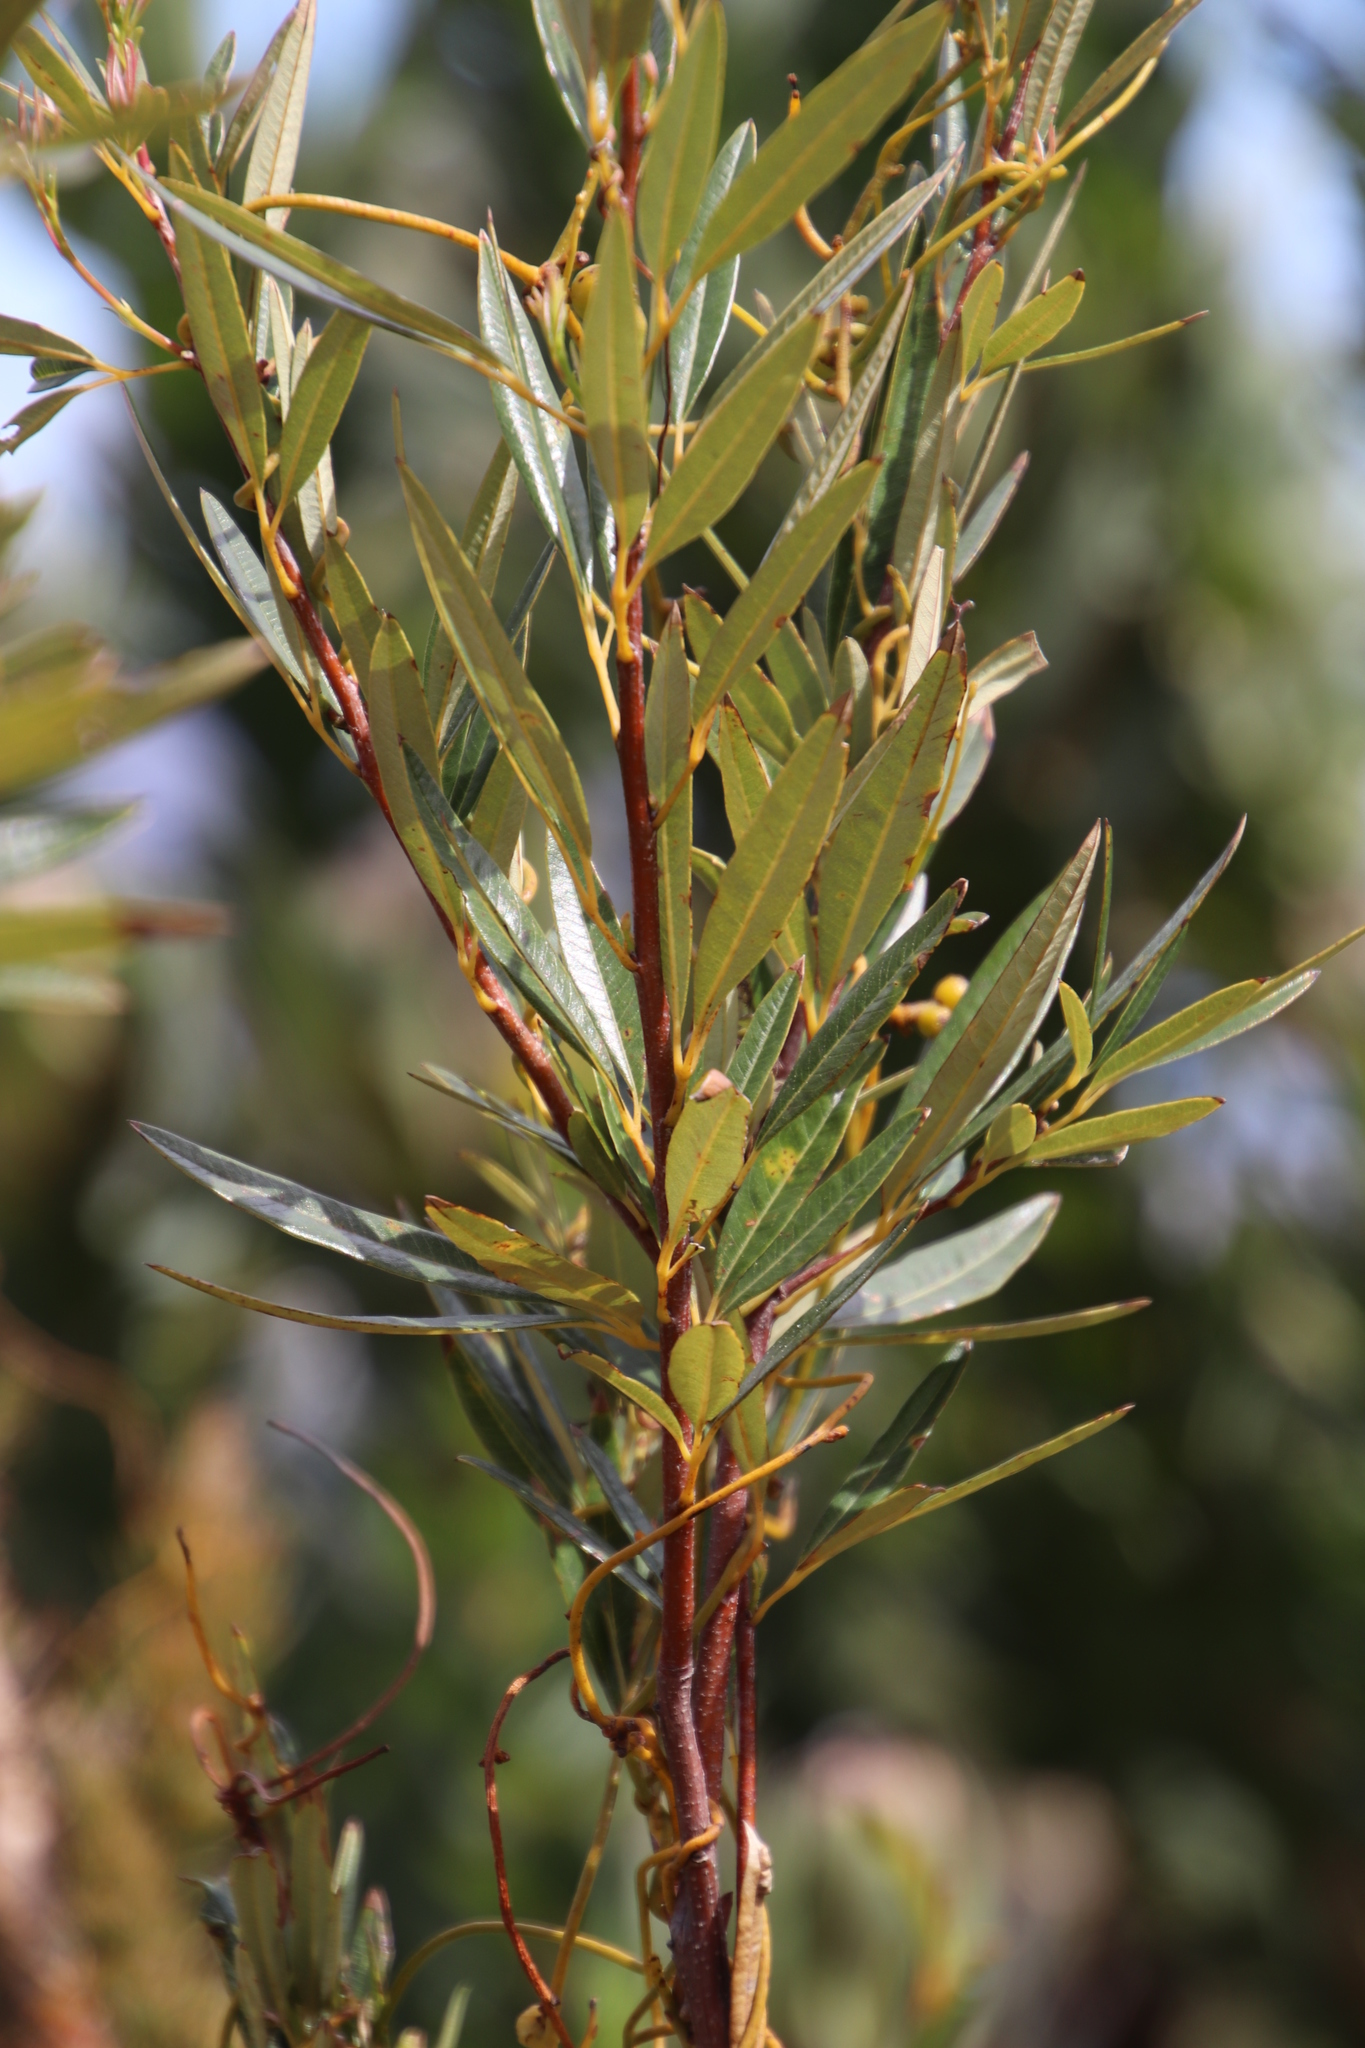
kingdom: Plantae
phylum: Tracheophyta
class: Magnoliopsida
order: Sapindales
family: Anacardiaceae
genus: Searsia
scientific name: Searsia angustifolia
